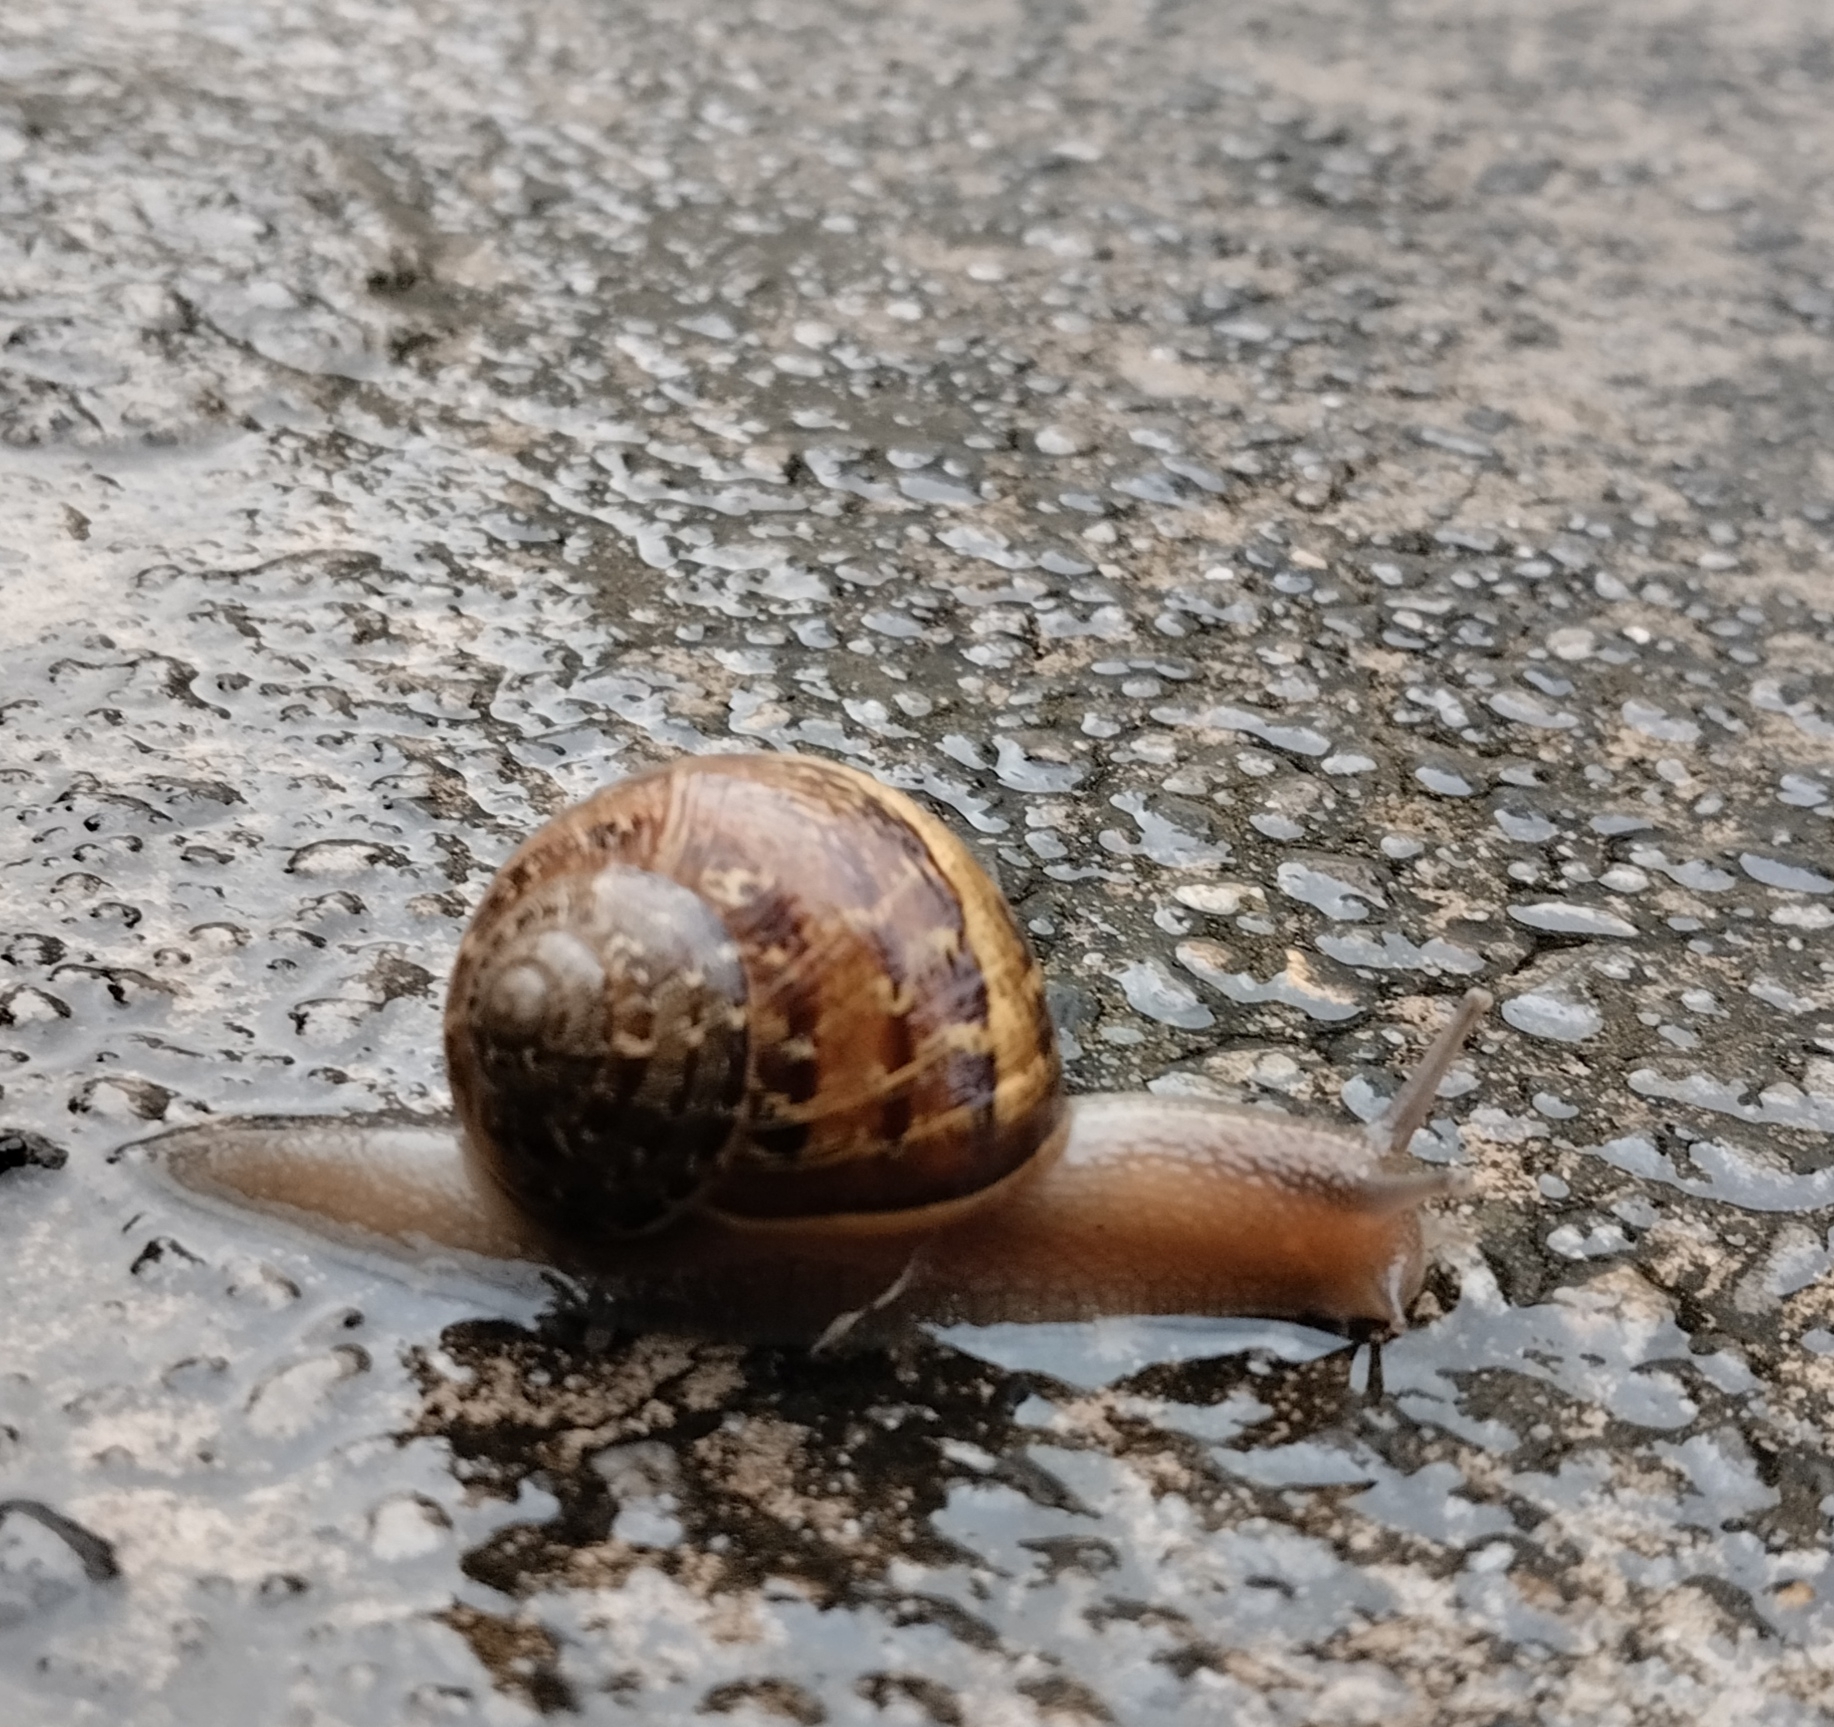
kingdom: Animalia
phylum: Mollusca
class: Gastropoda
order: Stylommatophora
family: Helicidae
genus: Cornu
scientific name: Cornu aspersum
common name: Brown garden snail
